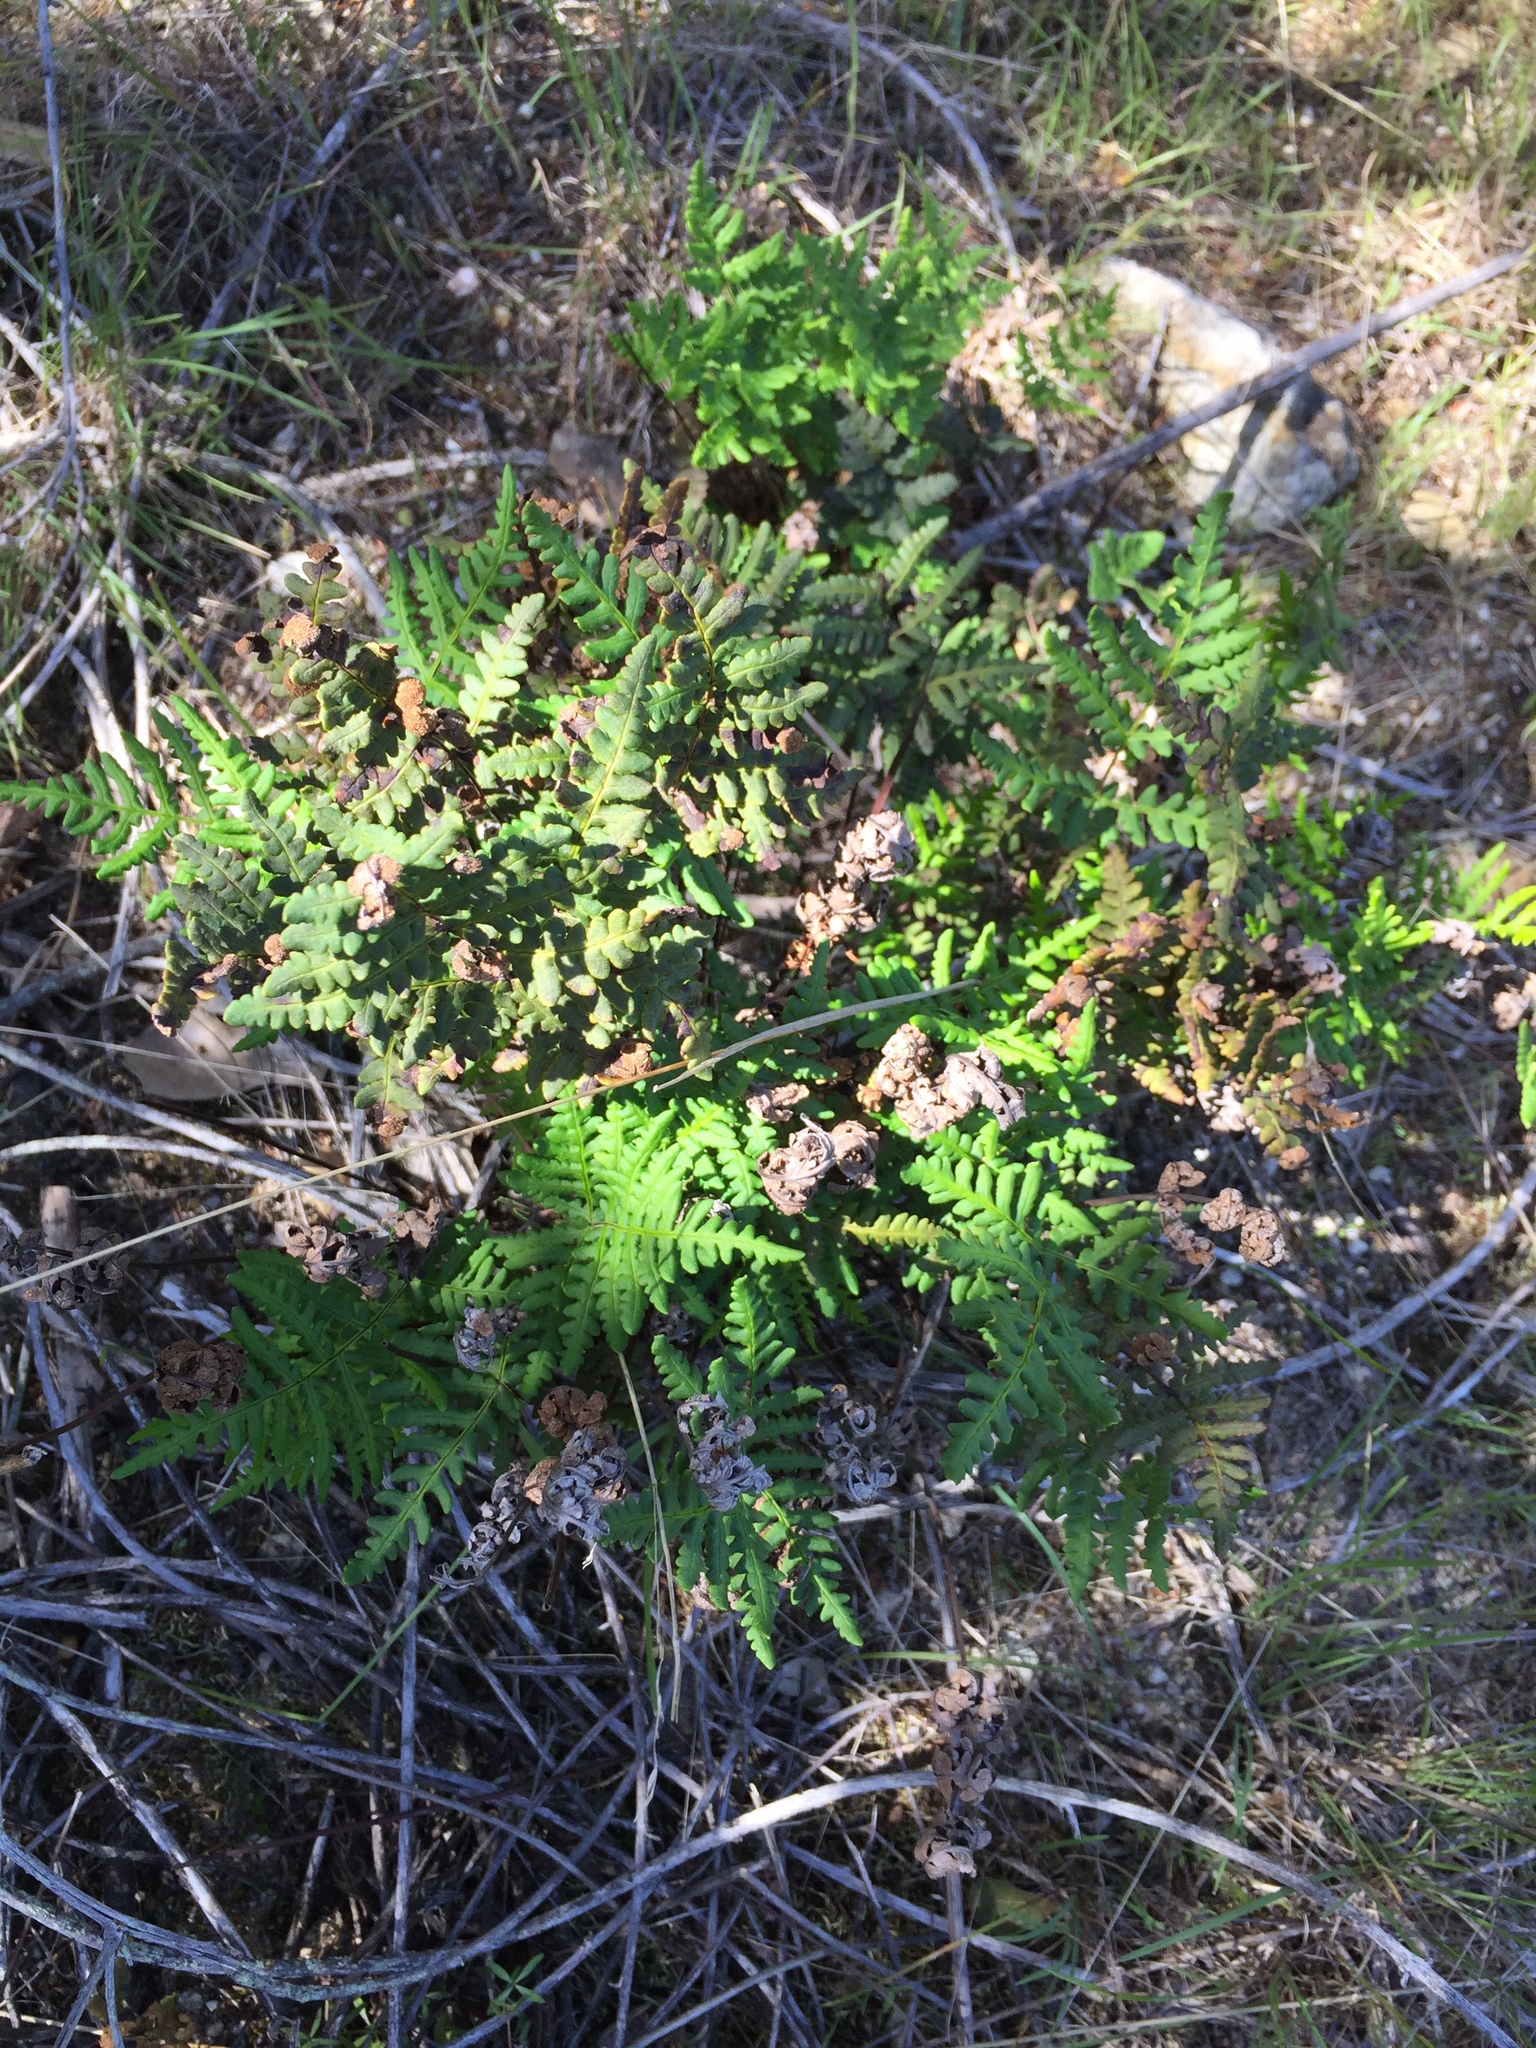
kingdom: Plantae
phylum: Tracheophyta
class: Polypodiopsida
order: Polypodiales
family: Pteridaceae
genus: Pentagramma
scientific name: Pentagramma triangularis
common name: Gold fern
